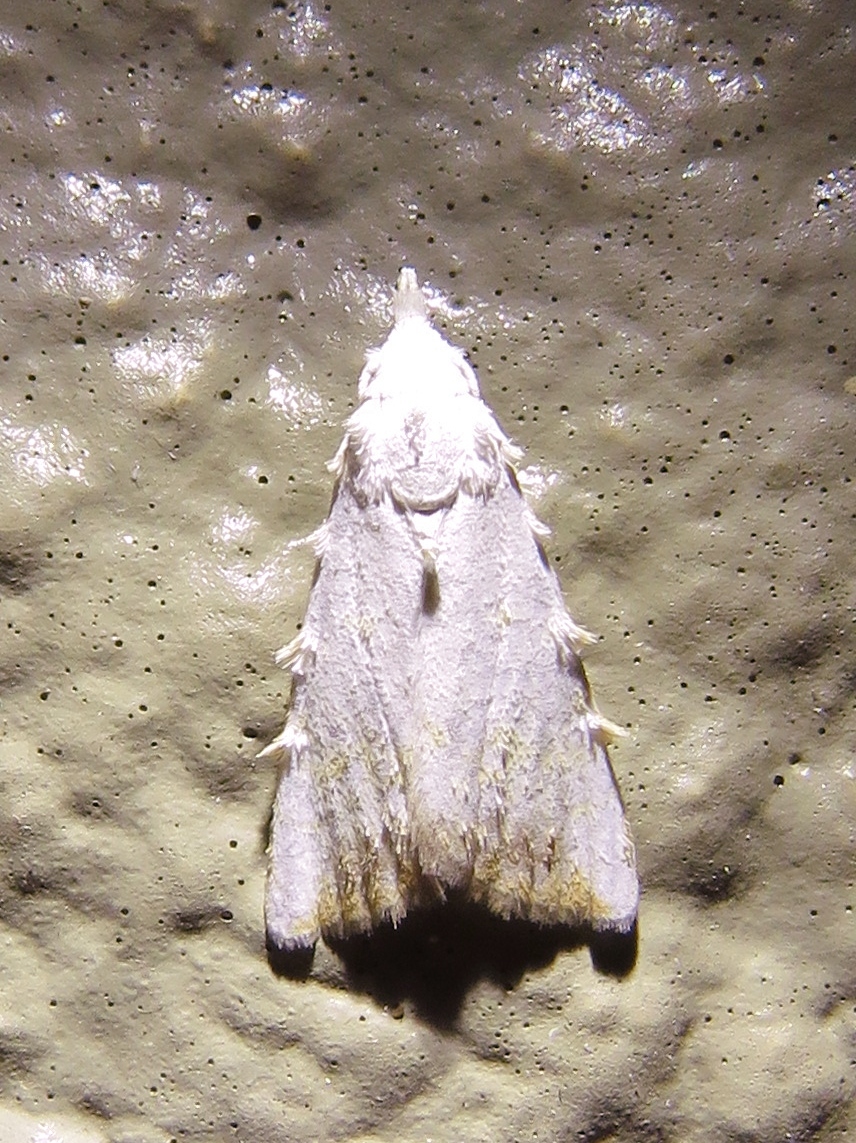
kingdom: Animalia
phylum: Arthropoda
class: Insecta
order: Lepidoptera
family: Nolidae
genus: Nola
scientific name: Nola cereella
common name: Sorghum webworm moth
